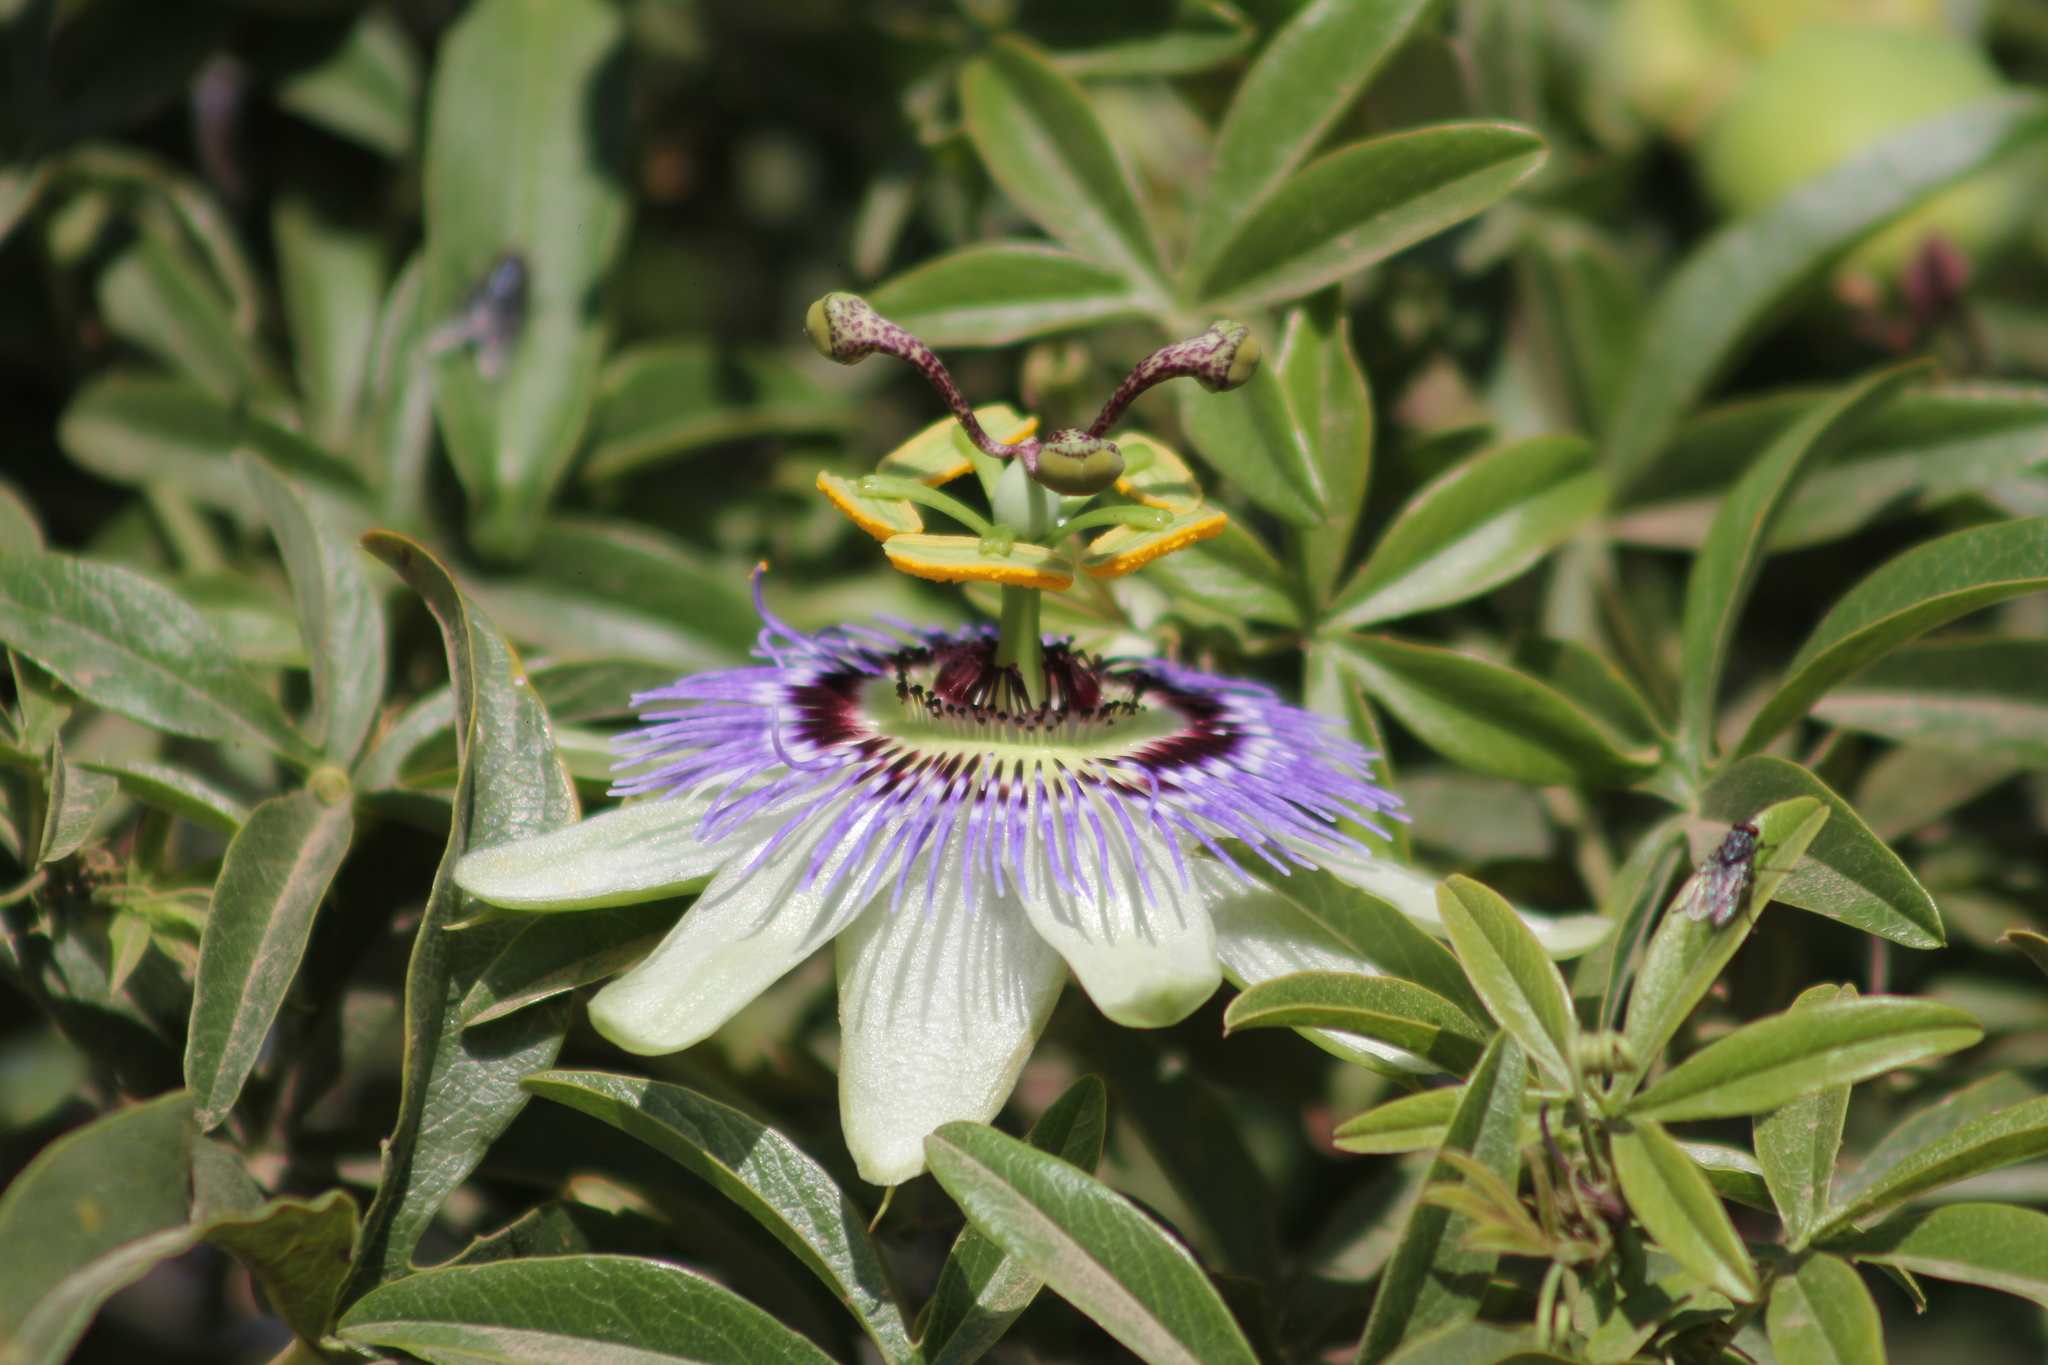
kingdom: Plantae
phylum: Tracheophyta
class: Magnoliopsida
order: Malpighiales
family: Passifloraceae
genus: Passiflora
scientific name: Passiflora caerulea
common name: Blue passionflower
